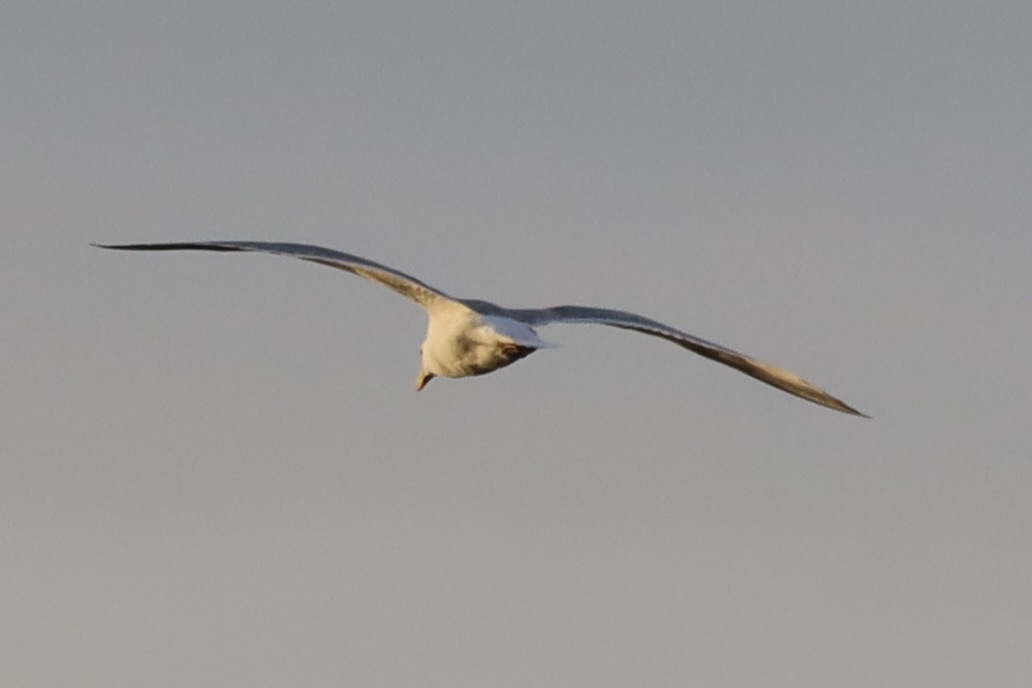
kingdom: Animalia
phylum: Chordata
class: Aves
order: Charadriiformes
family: Laridae
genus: Larus
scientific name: Larus
